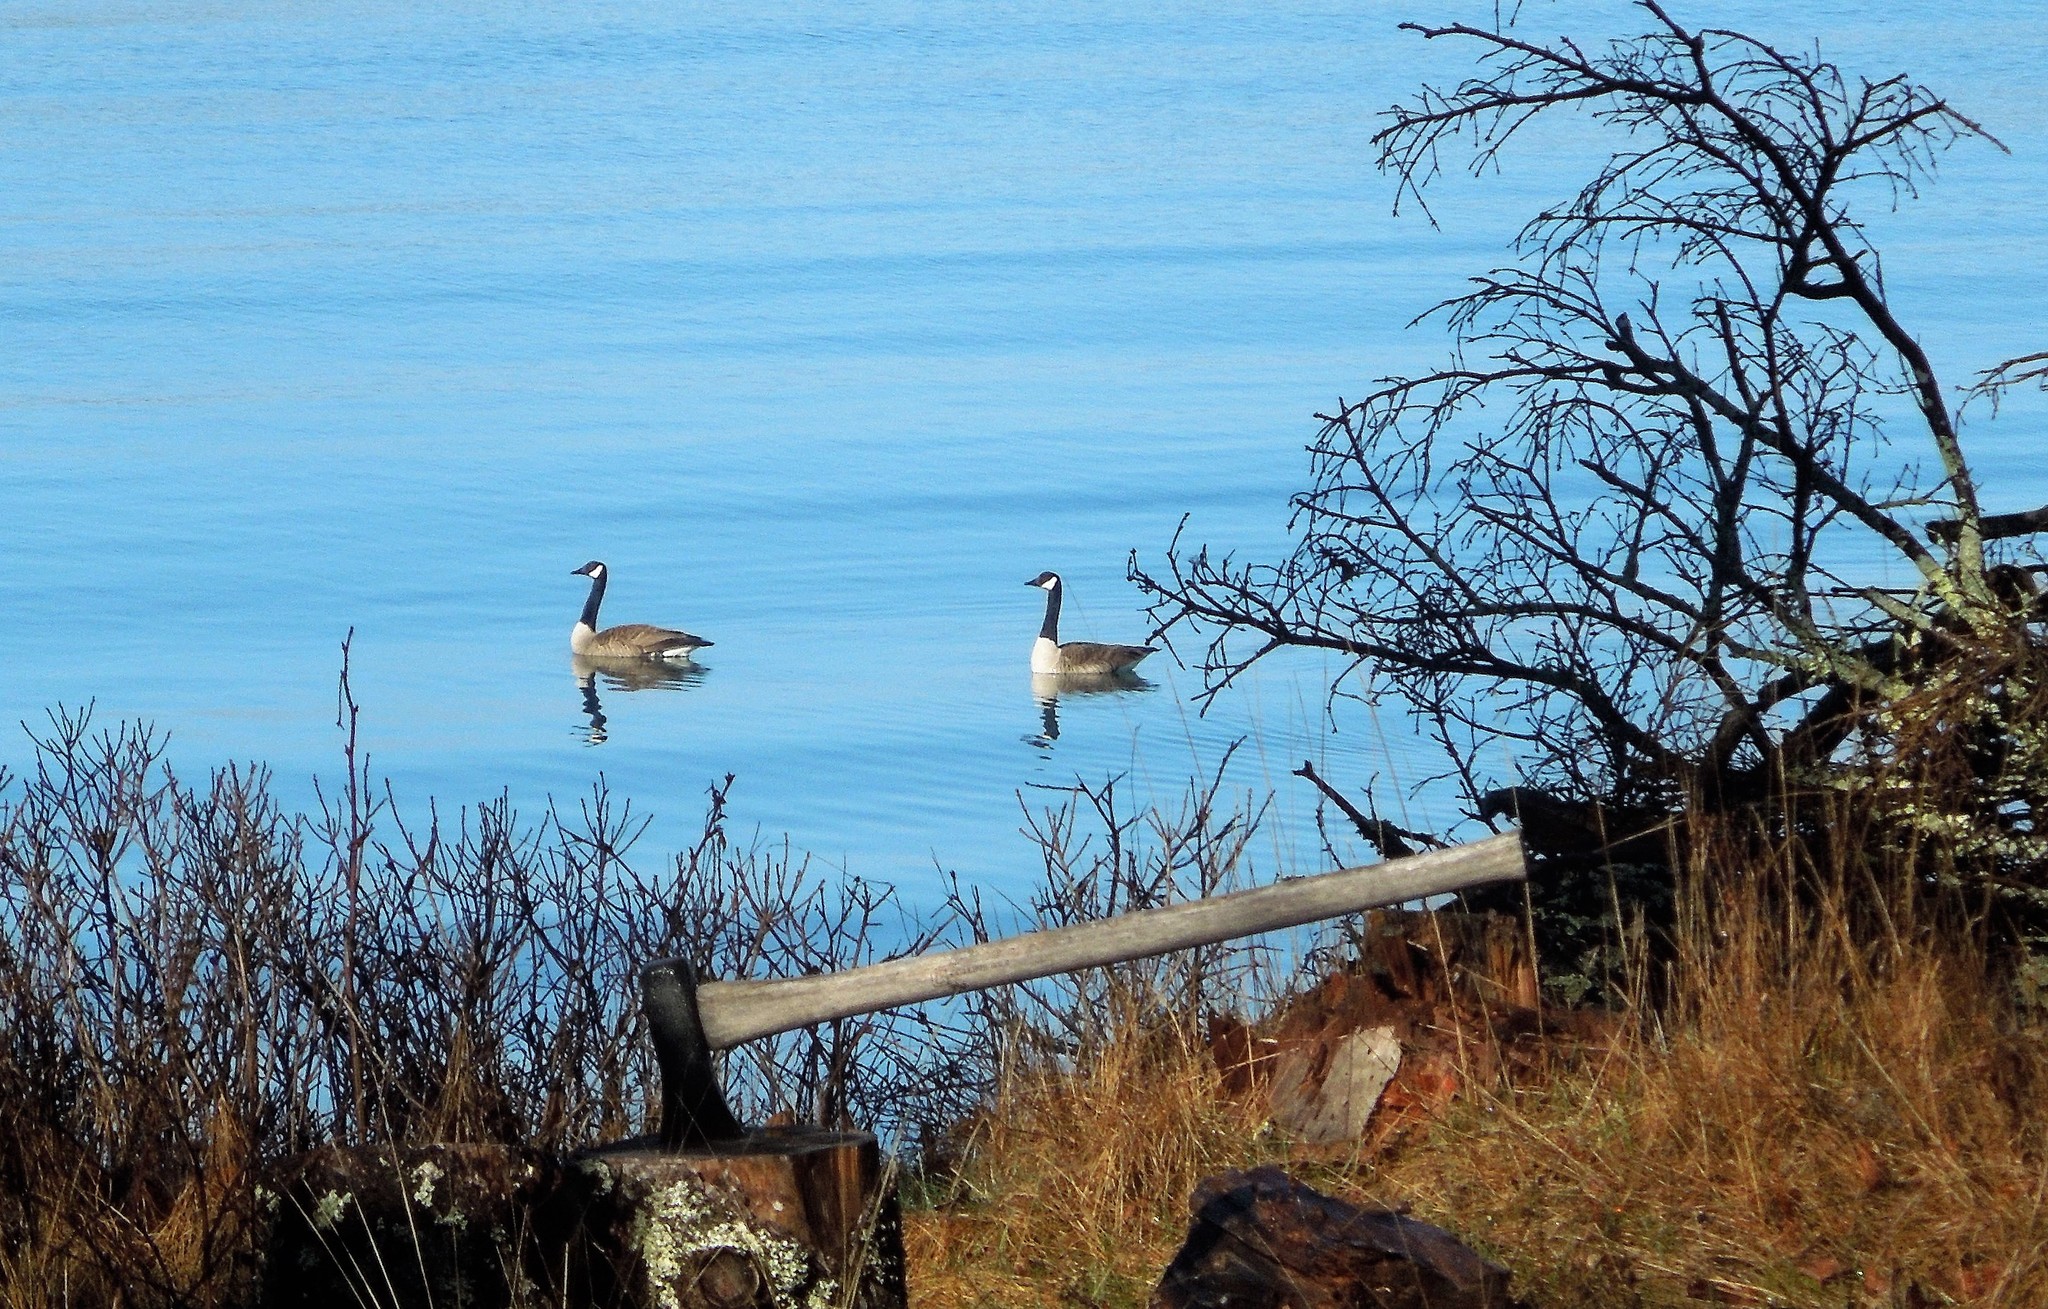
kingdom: Animalia
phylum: Chordata
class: Aves
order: Anseriformes
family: Anatidae
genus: Branta
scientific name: Branta canadensis
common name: Canada goose
